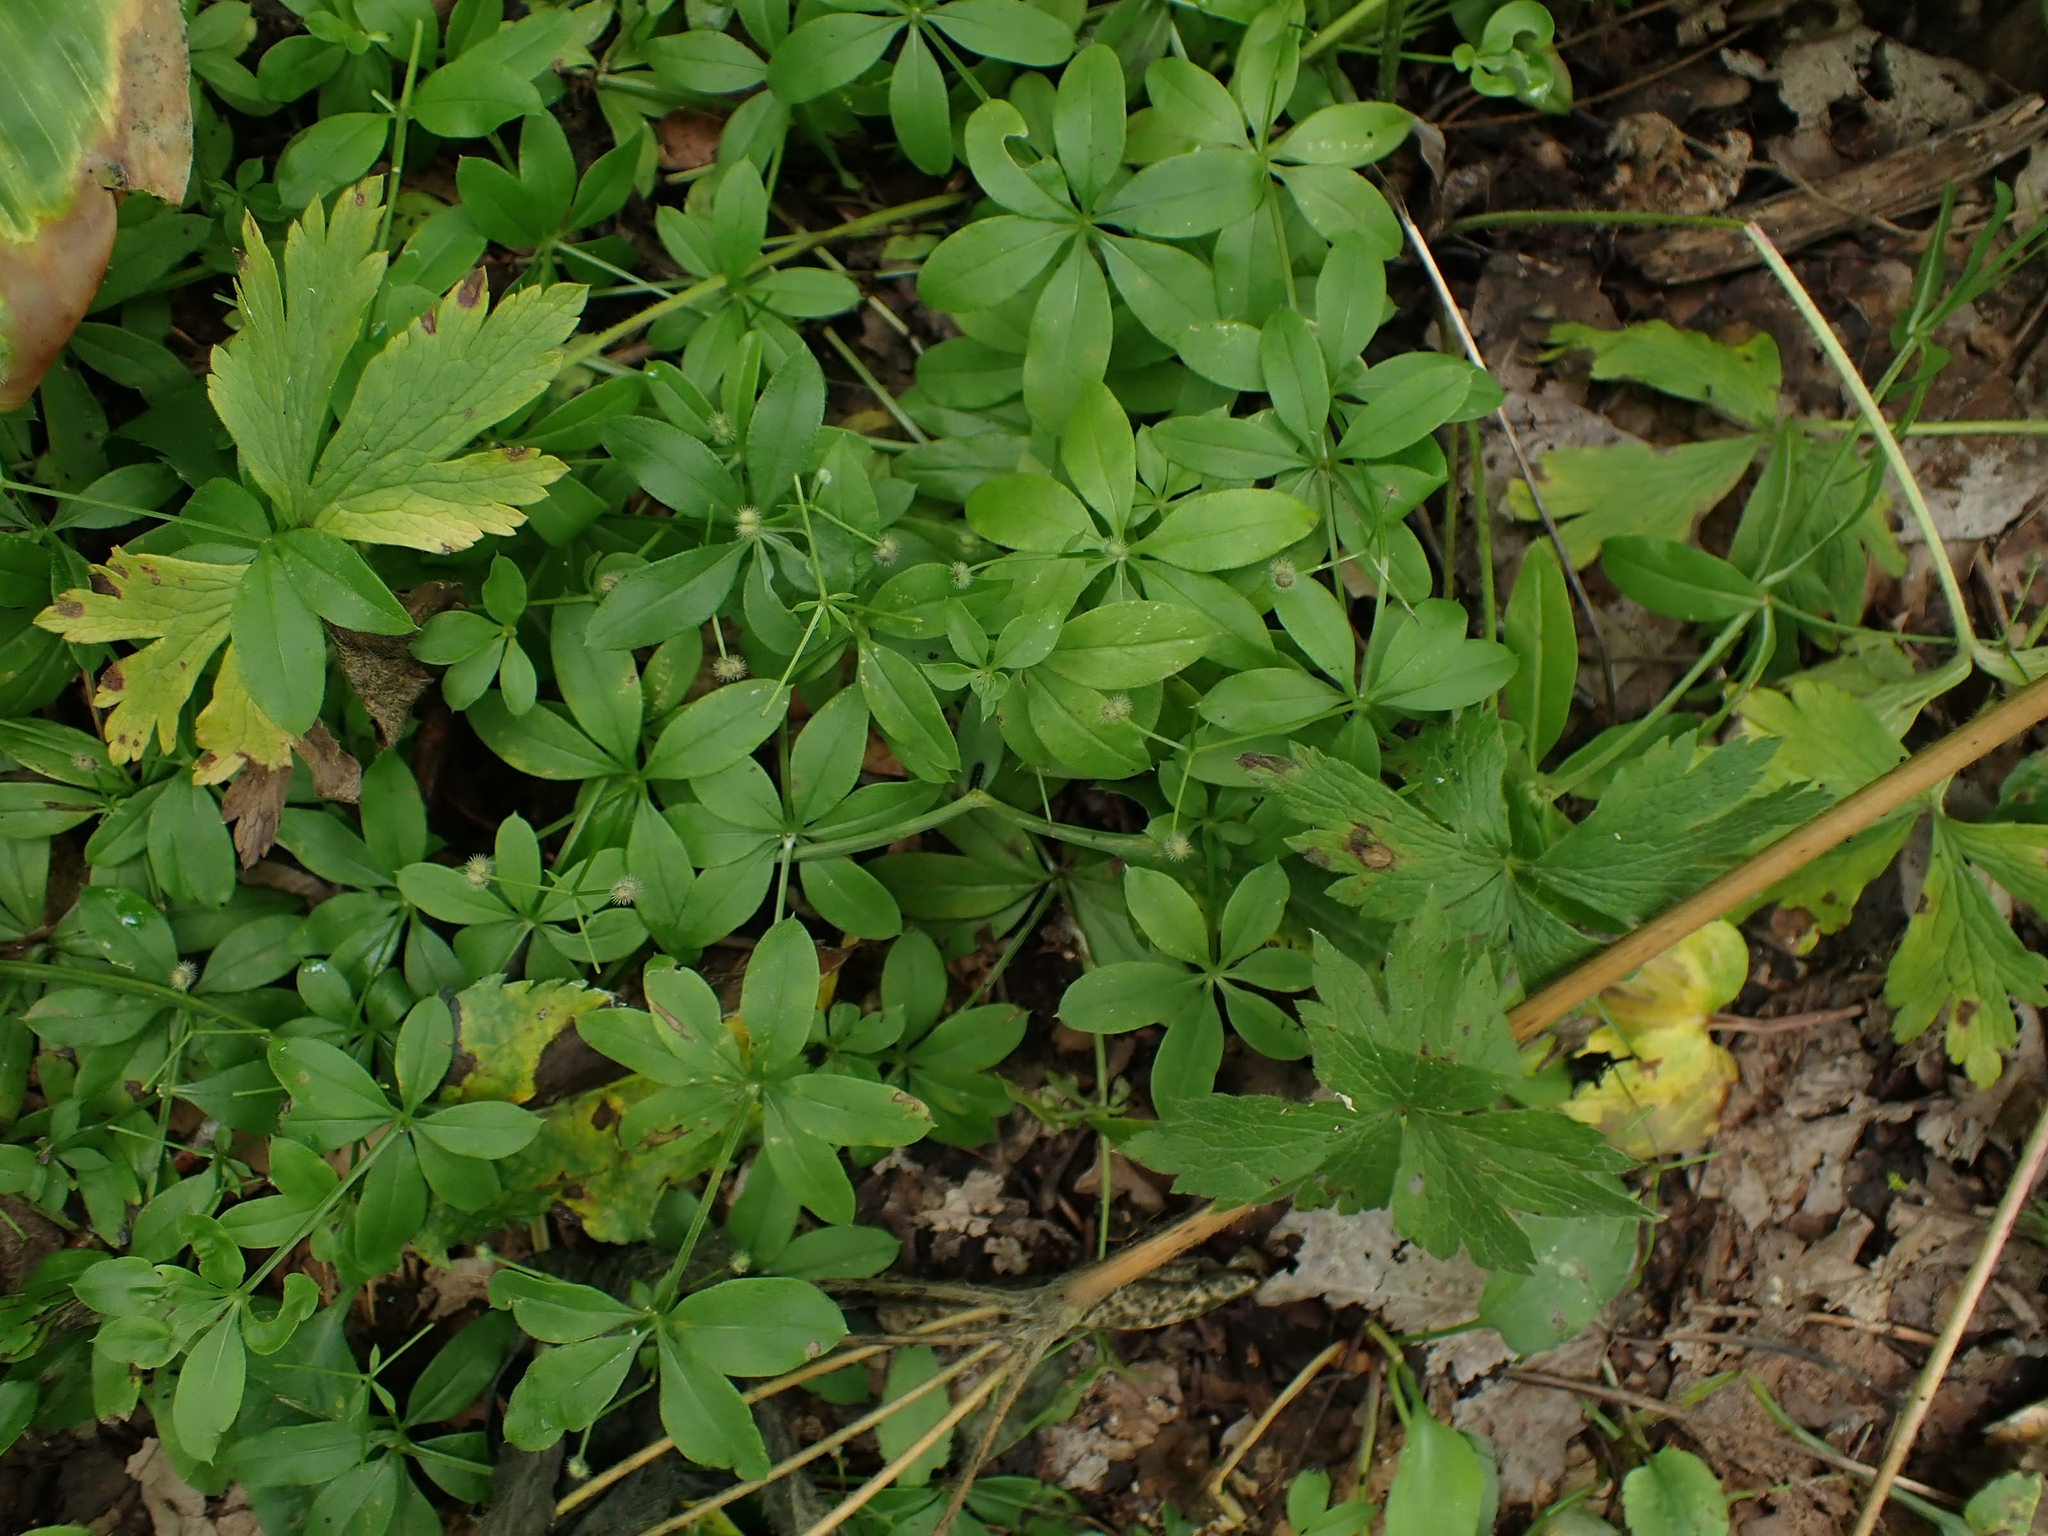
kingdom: Plantae
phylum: Tracheophyta
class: Magnoliopsida
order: Gentianales
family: Rubiaceae
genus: Galium
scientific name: Galium triflorum
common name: Fragrant bedstraw
